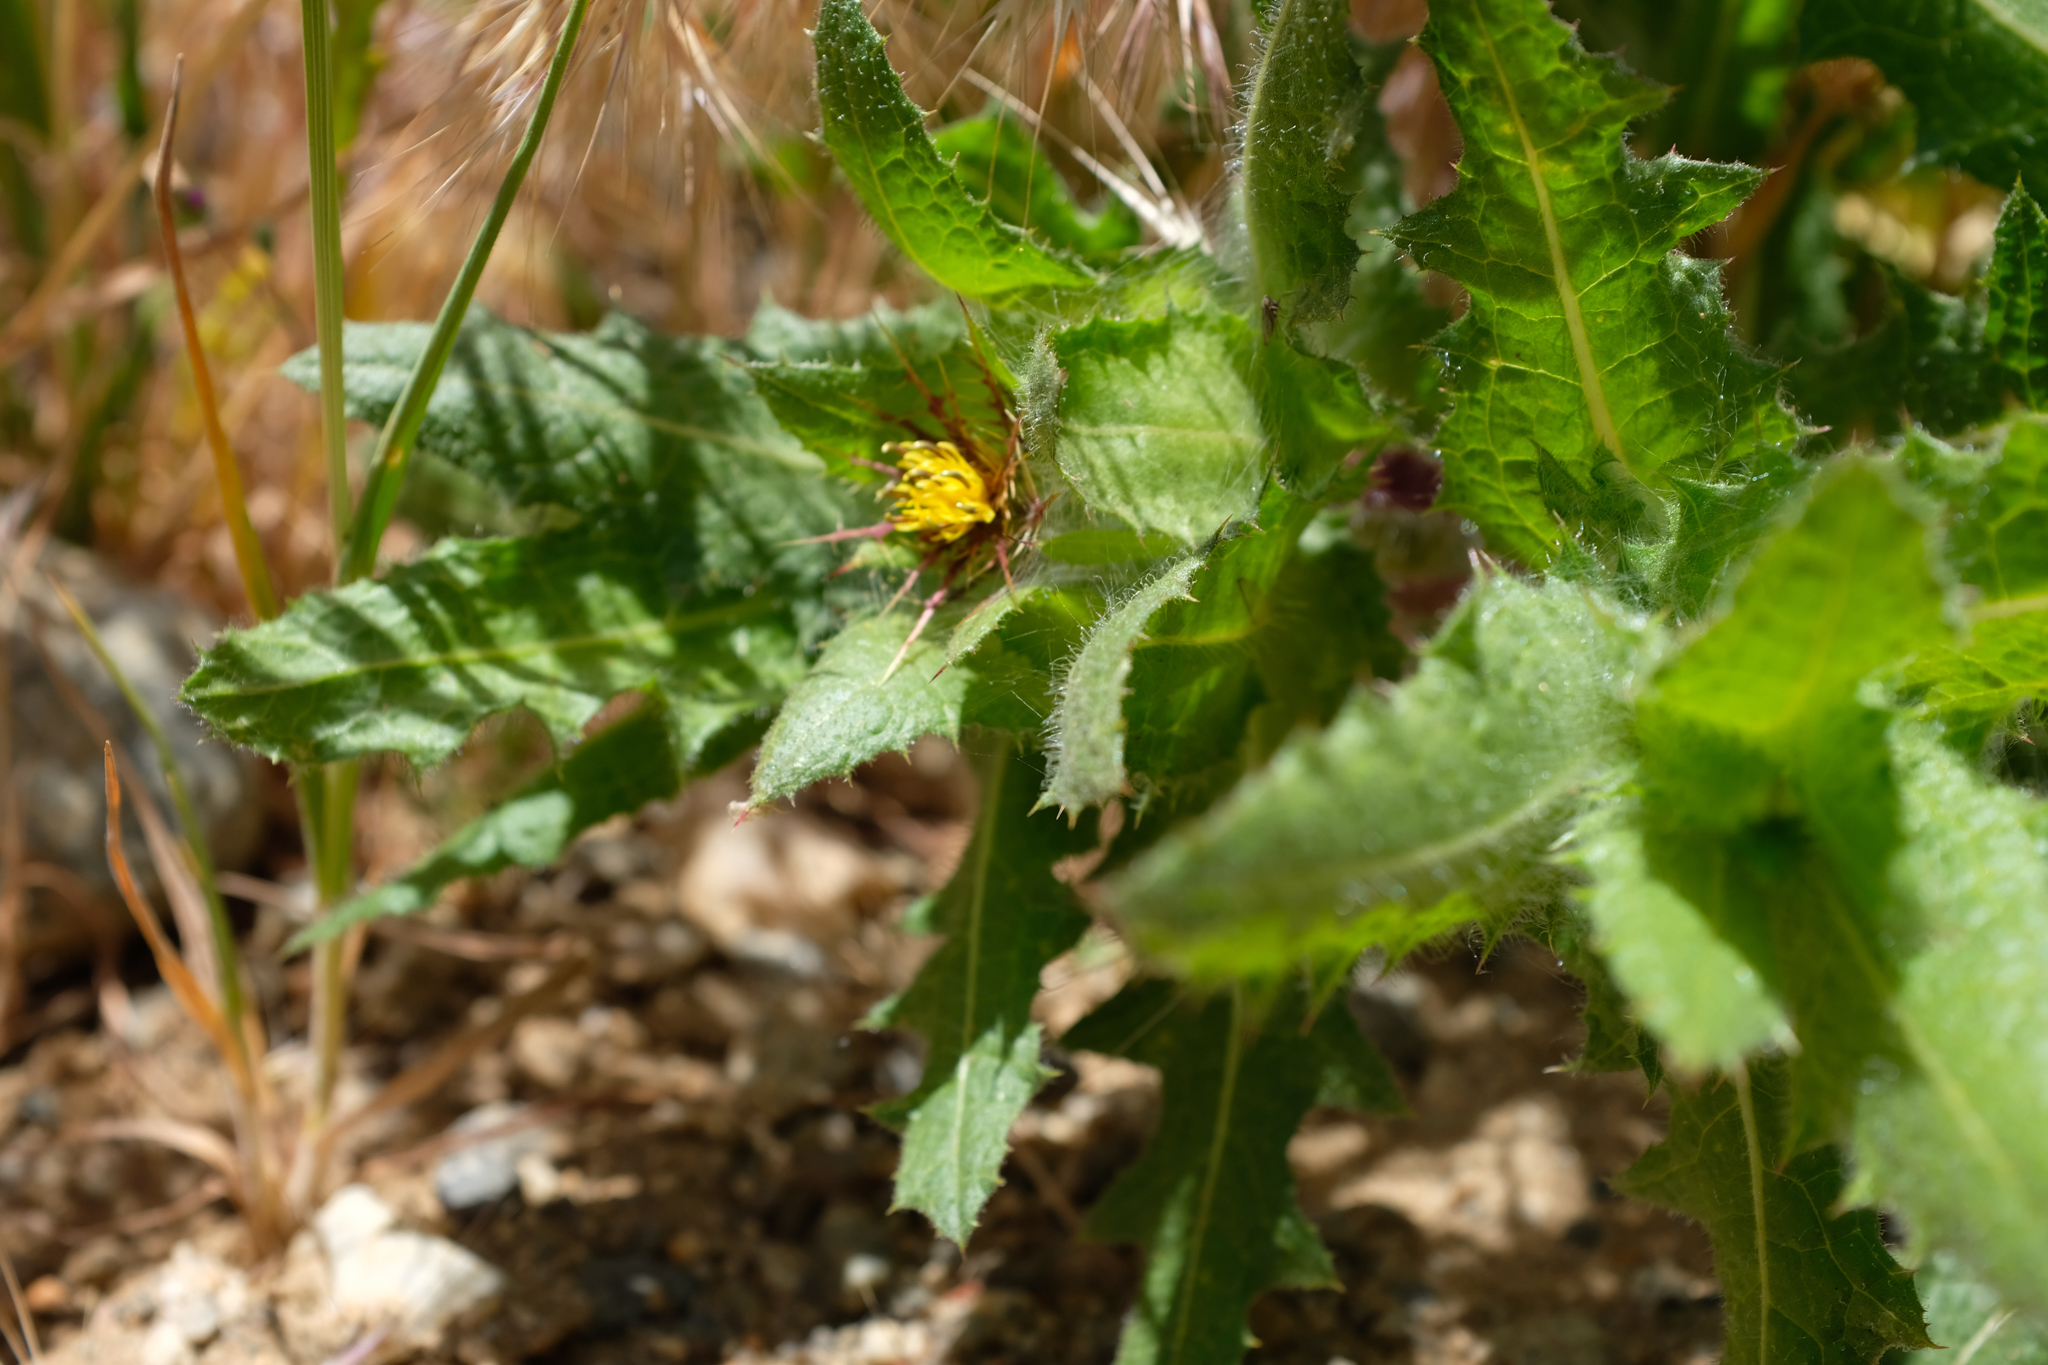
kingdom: Plantae
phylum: Tracheophyta
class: Magnoliopsida
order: Asterales
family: Asteraceae
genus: Centaurea
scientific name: Centaurea benedicta
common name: Blessed thistle
